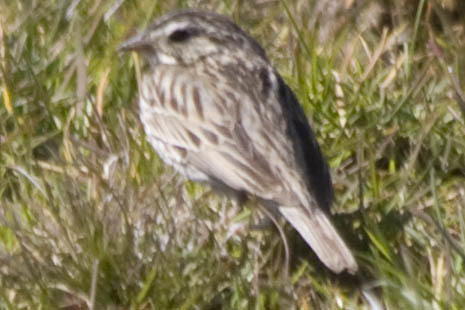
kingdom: Animalia
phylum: Chordata
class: Aves
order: Passeriformes
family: Passerellidae
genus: Passerculus
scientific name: Passerculus sandwichensis
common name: Savannah sparrow
